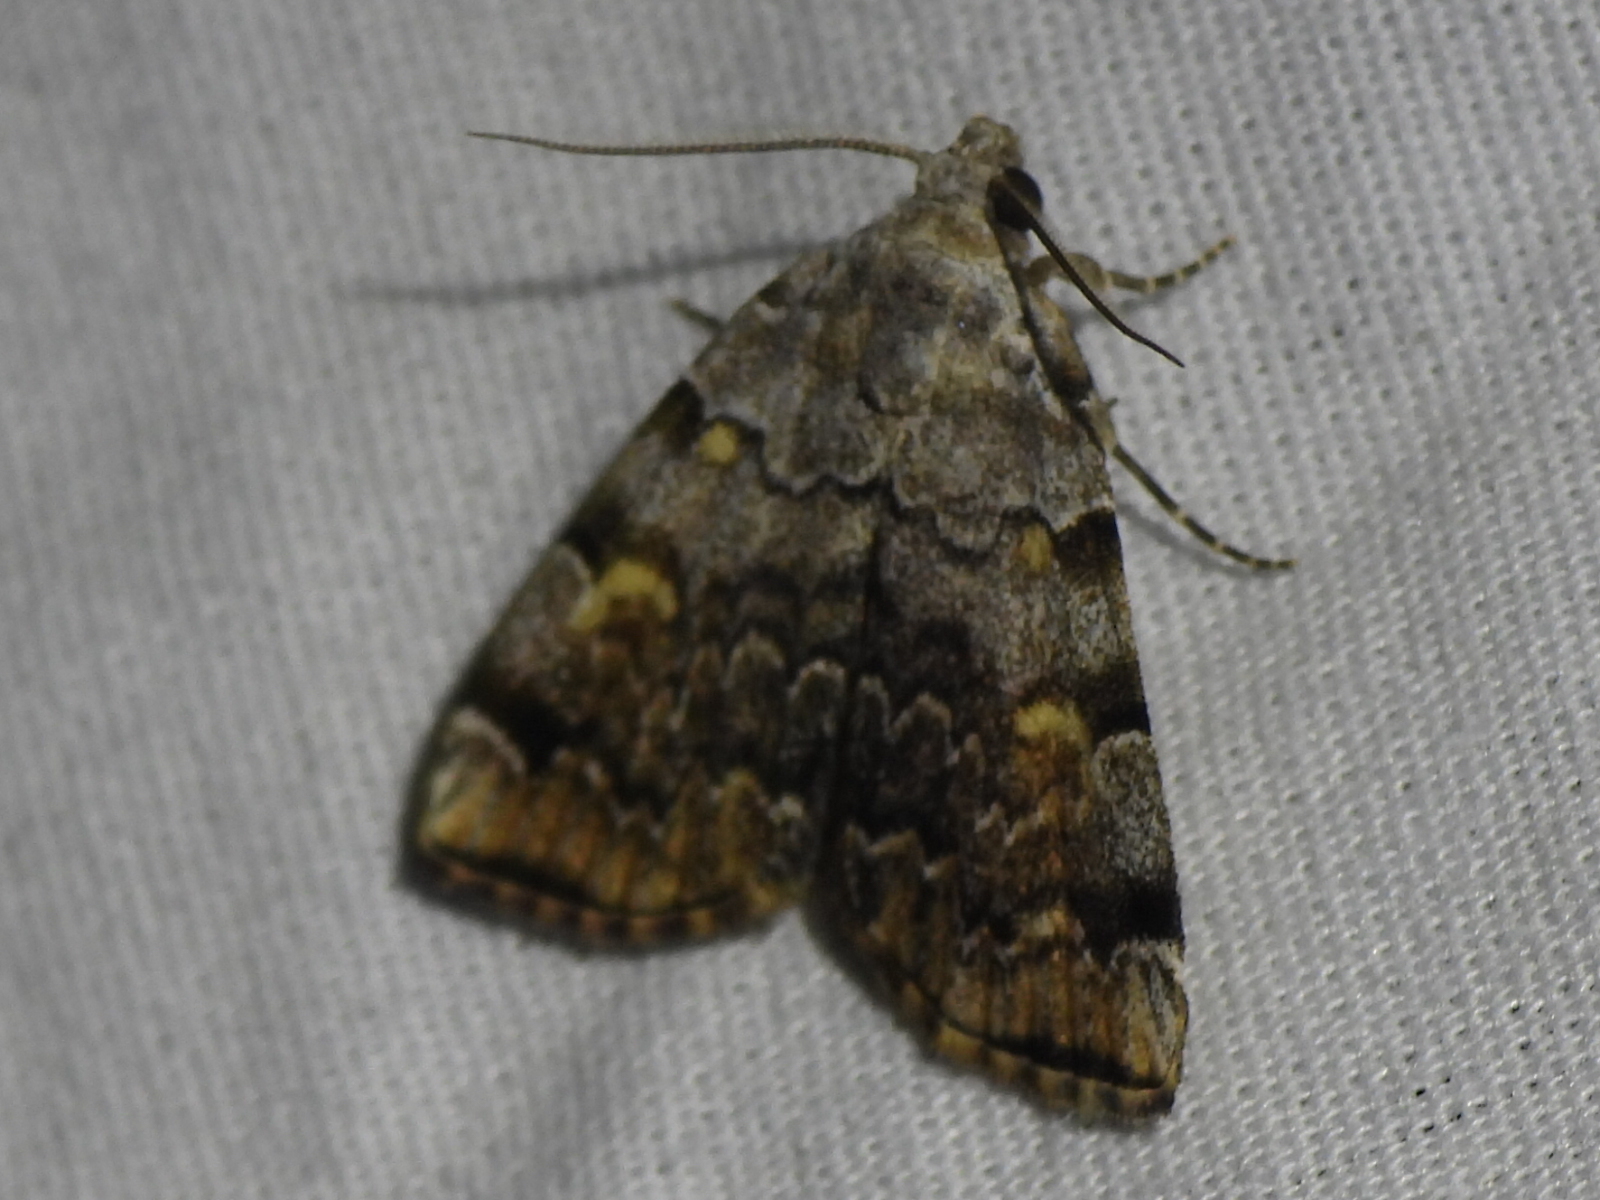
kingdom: Animalia
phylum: Arthropoda
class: Insecta
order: Lepidoptera
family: Erebidae
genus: Idia
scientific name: Idia americalis
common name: American idia moth
